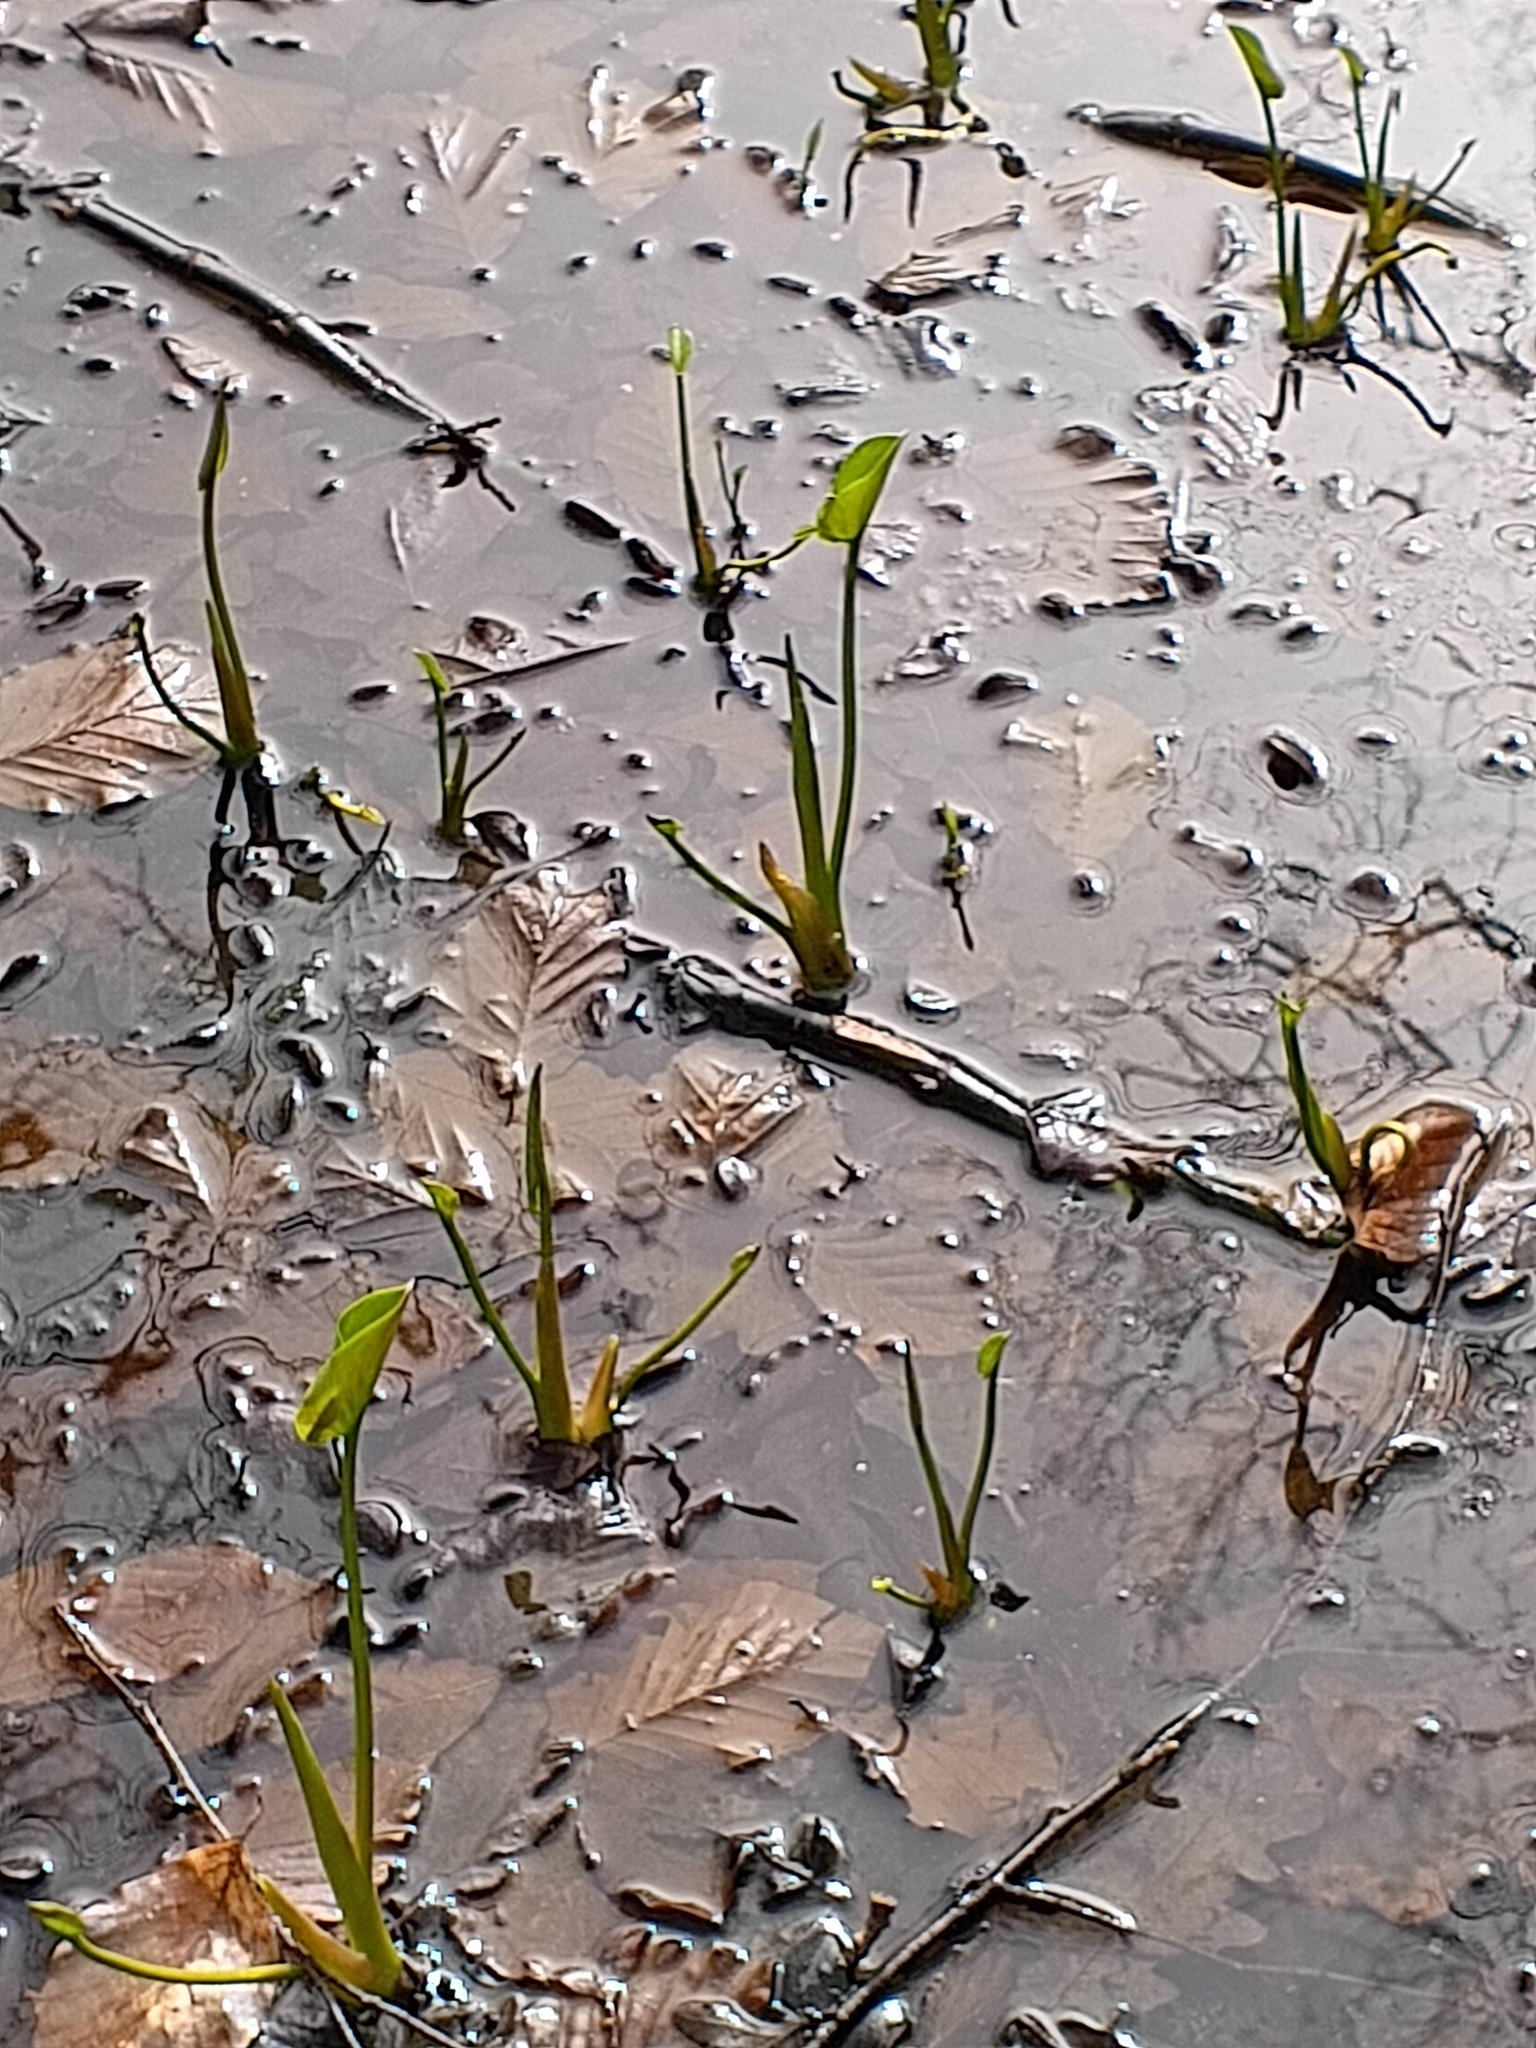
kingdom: Plantae
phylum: Tracheophyta
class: Liliopsida
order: Alismatales
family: Araceae
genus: Calla
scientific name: Calla palustris
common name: Bog arum
